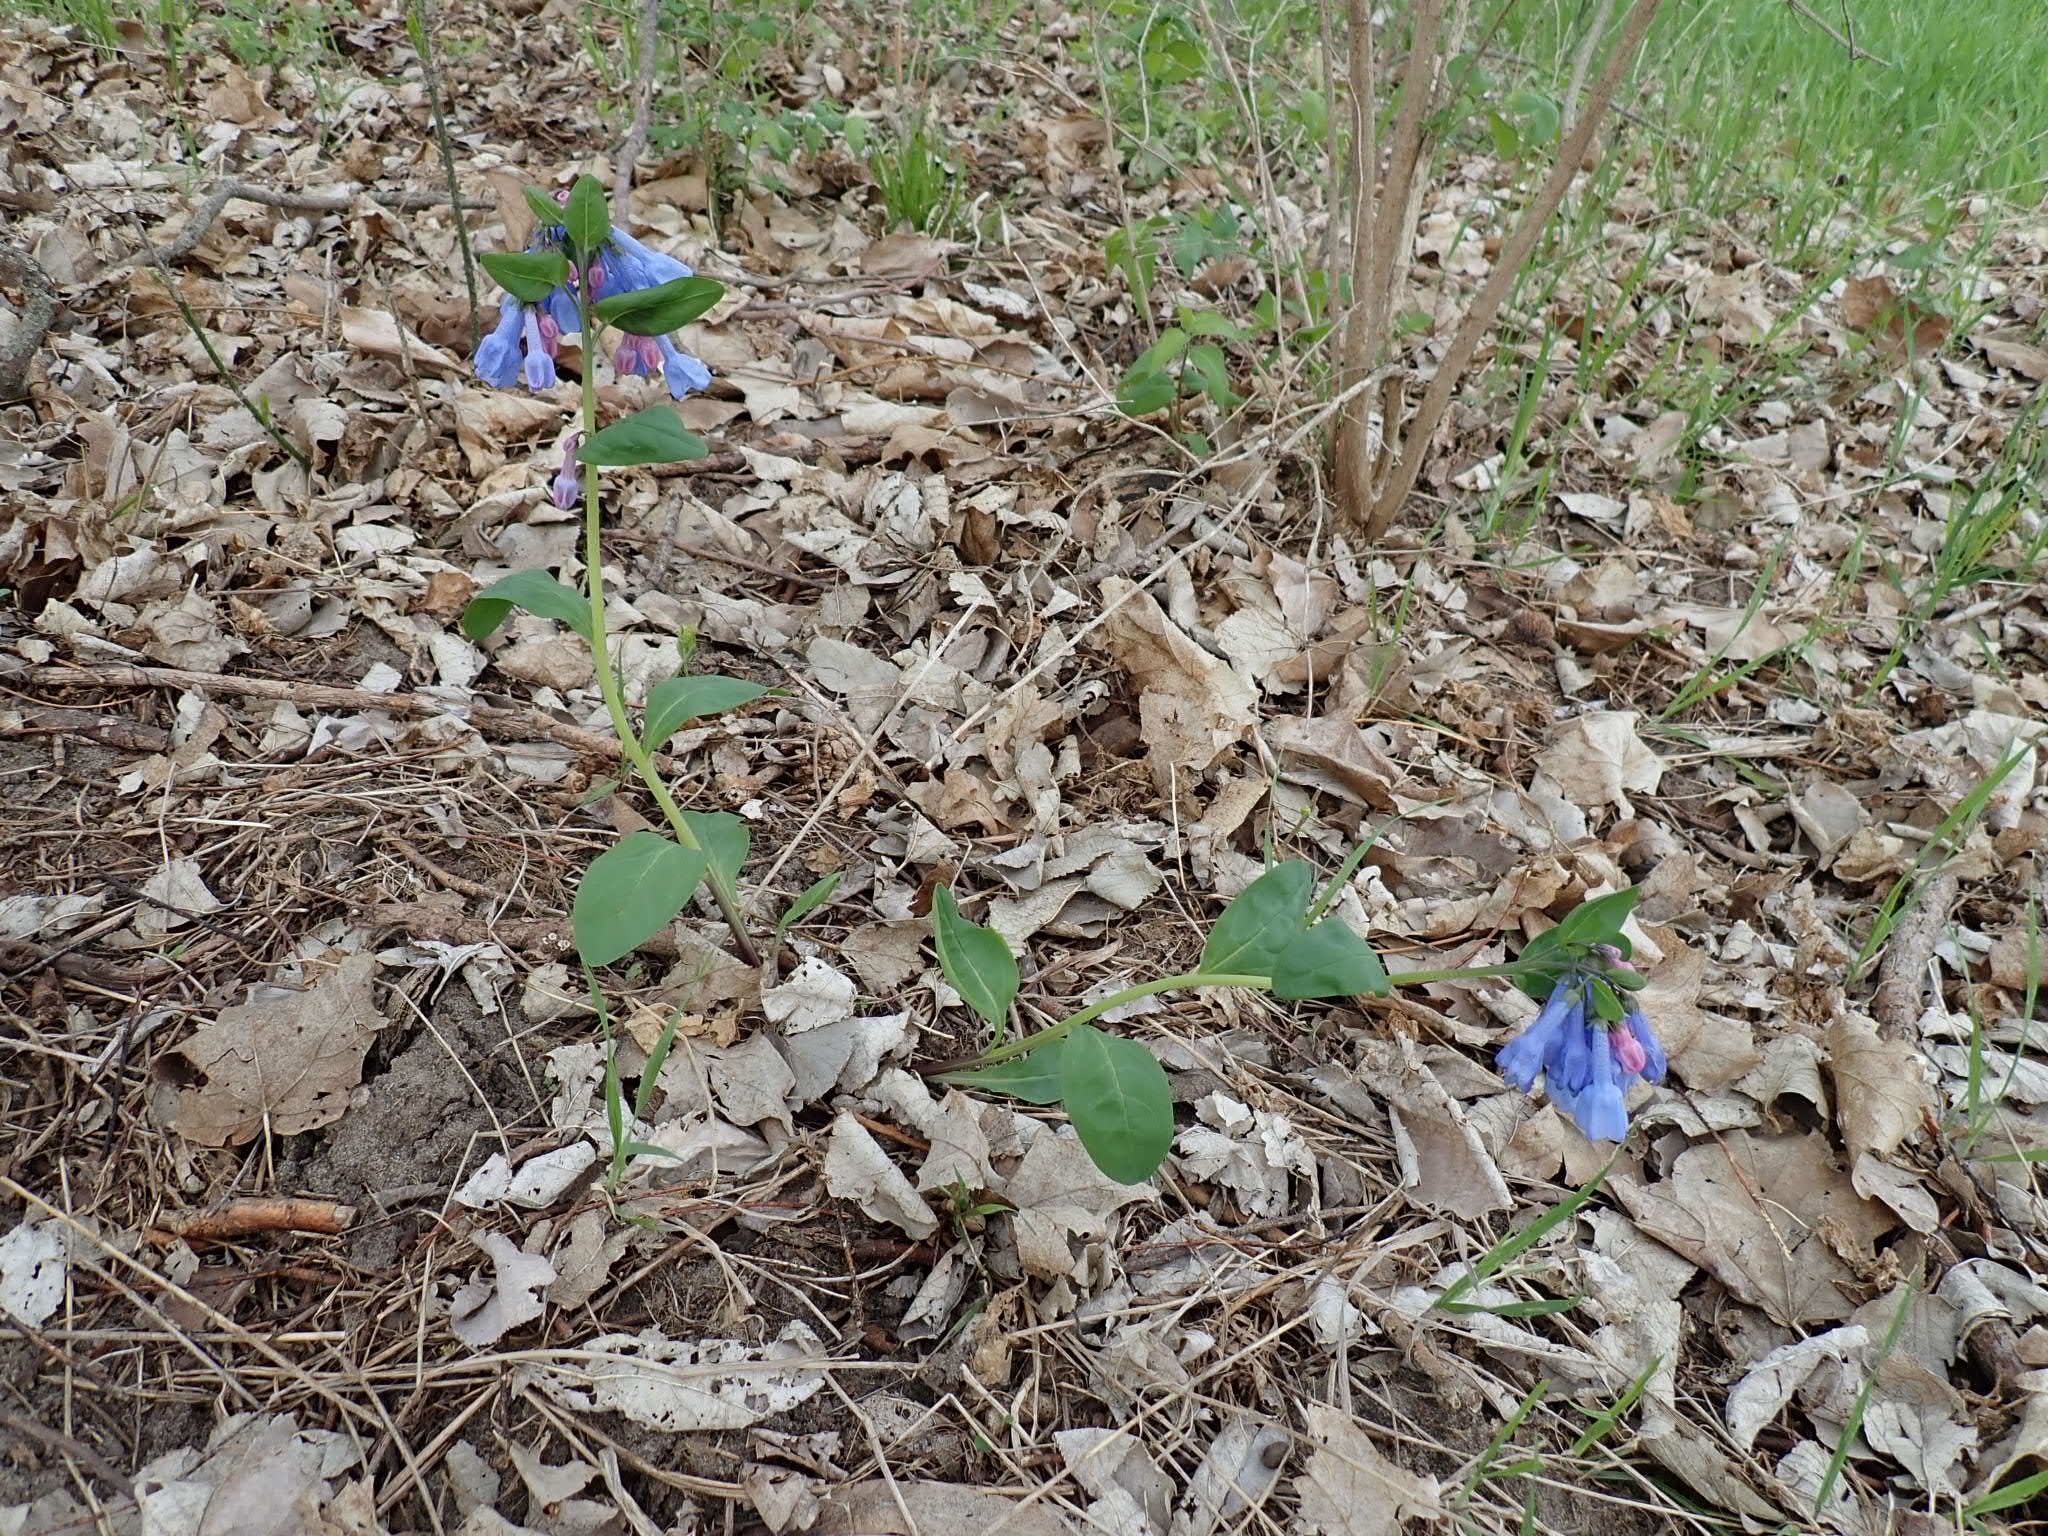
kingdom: Plantae
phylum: Tracheophyta
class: Magnoliopsida
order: Boraginales
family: Boraginaceae
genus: Mertensia
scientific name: Mertensia virginica
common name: Virginia bluebells
